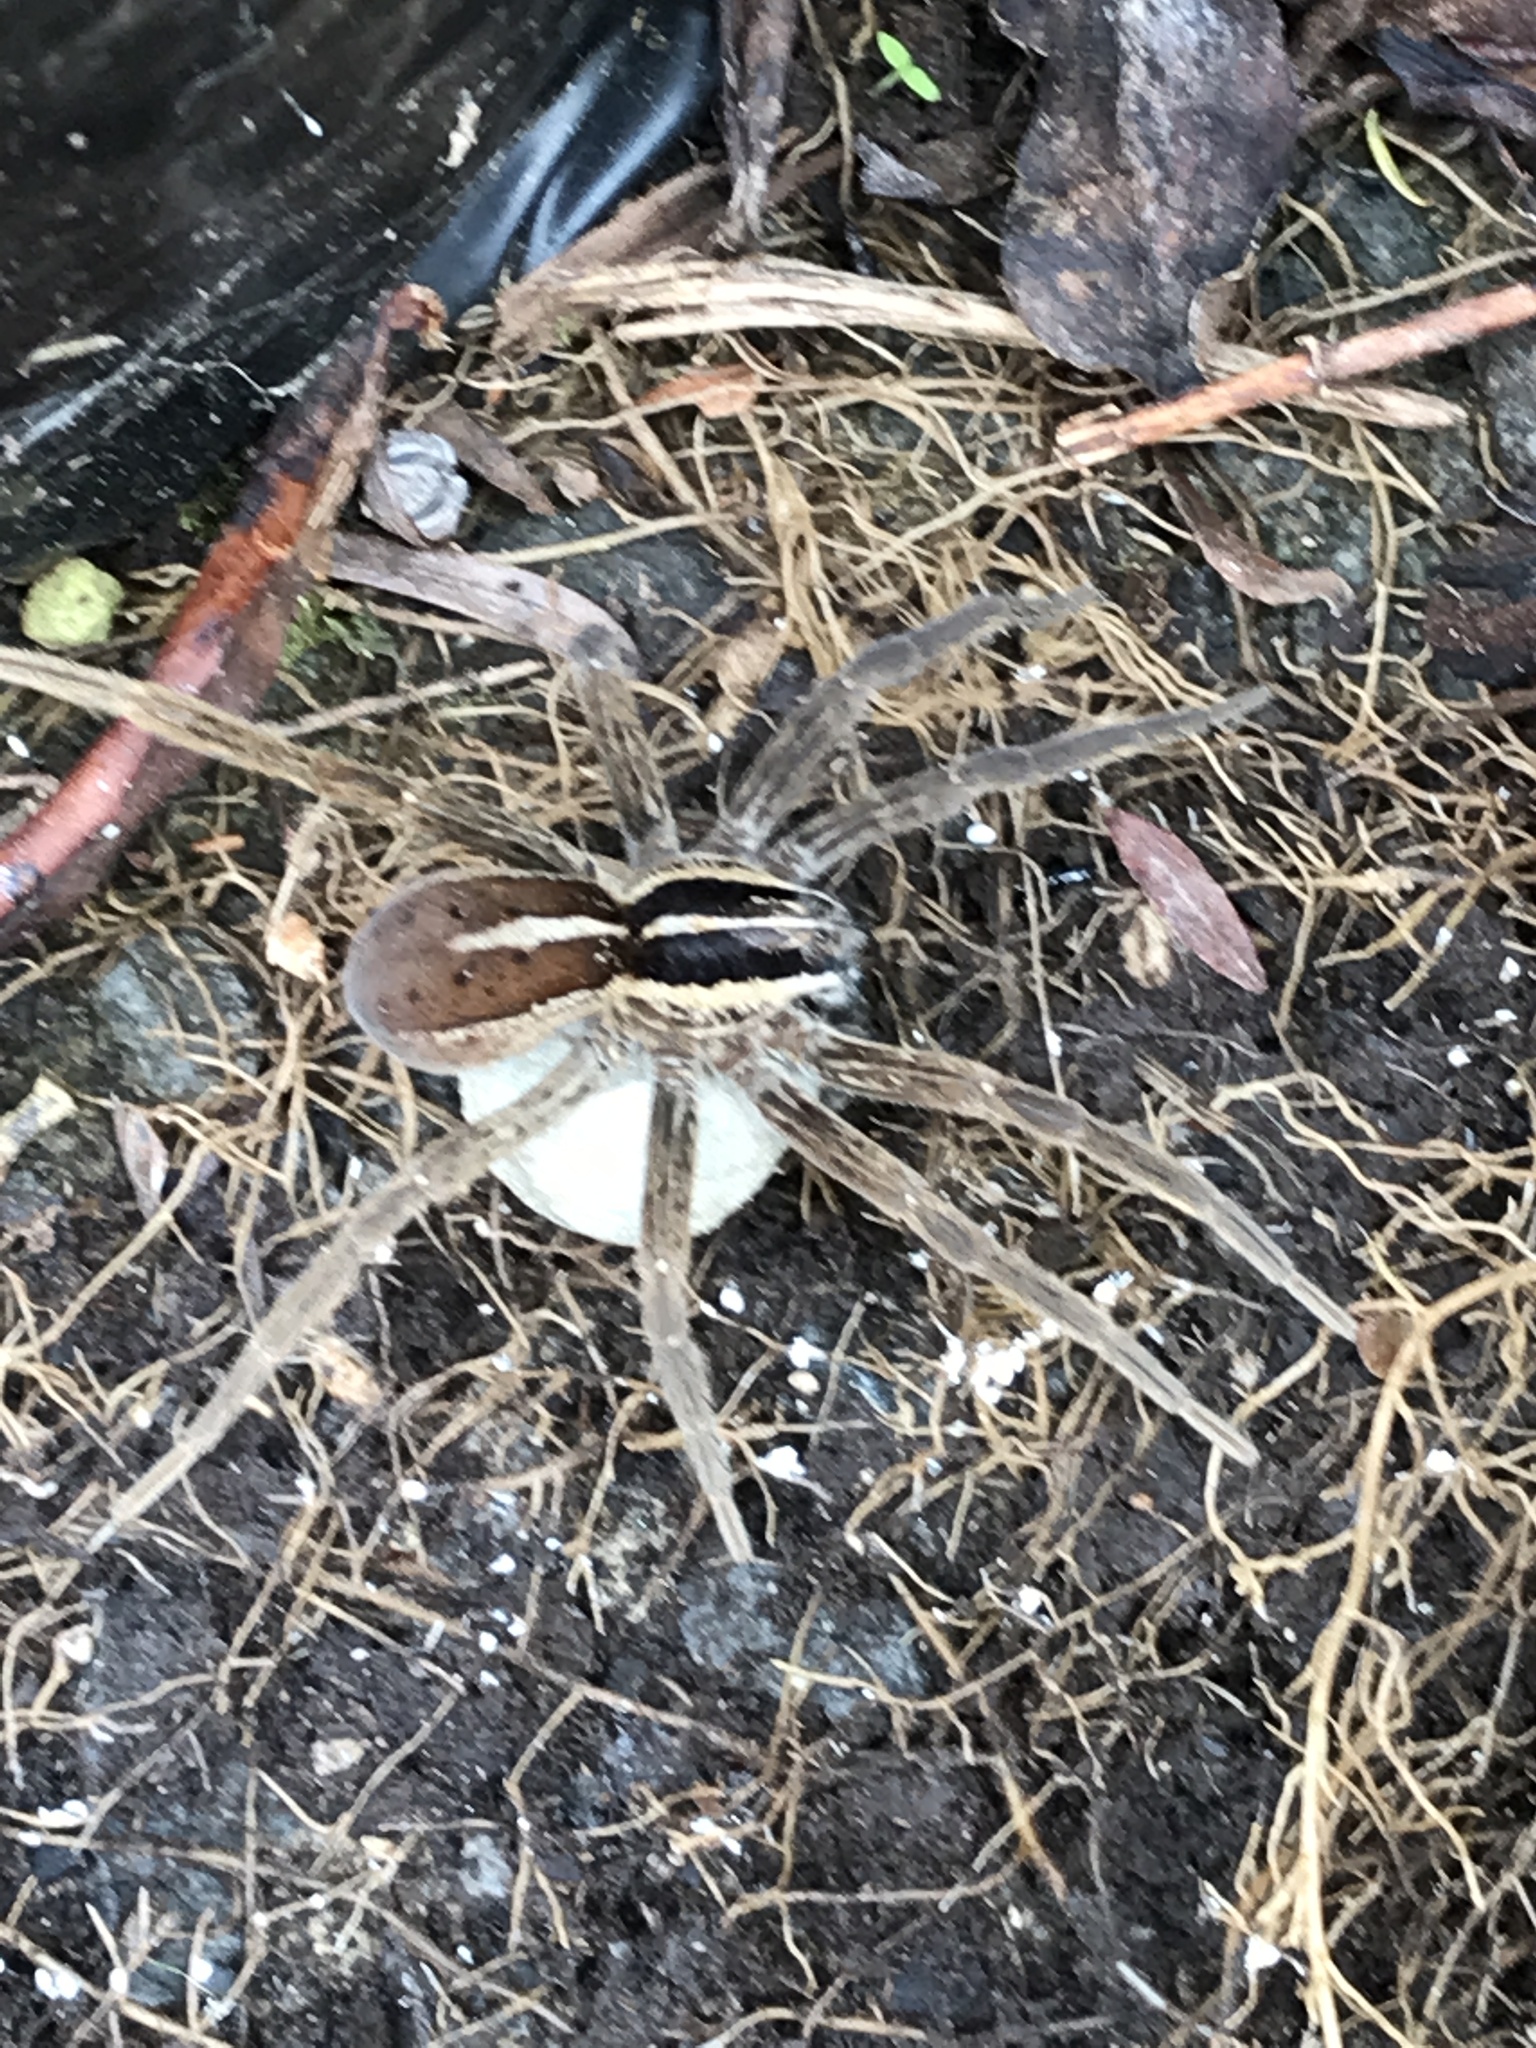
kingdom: Animalia
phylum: Arthropoda
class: Arachnida
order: Araneae
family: Pisauridae
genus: Dolomedes
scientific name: Dolomedes minor
